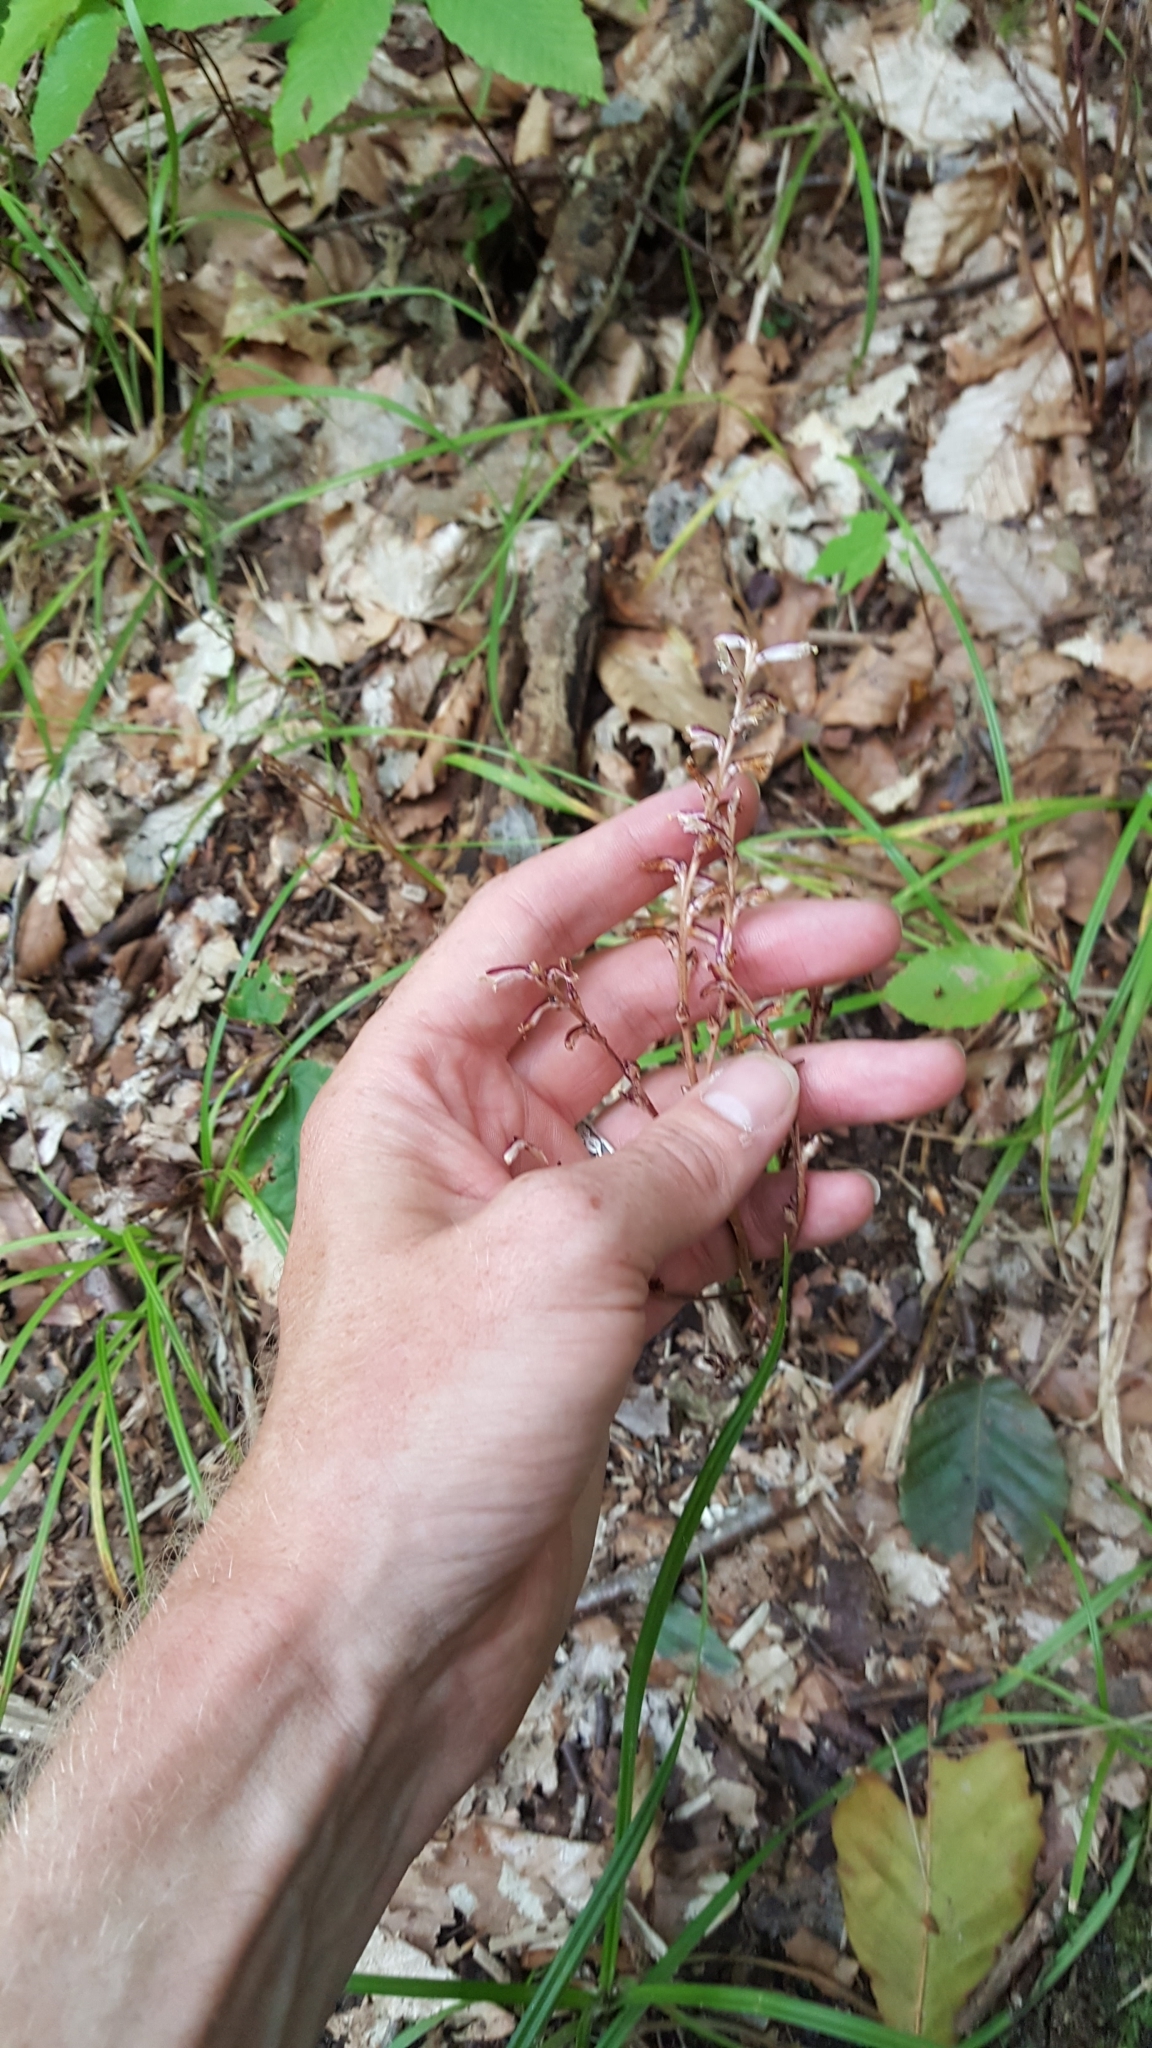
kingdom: Plantae
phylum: Tracheophyta
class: Magnoliopsida
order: Lamiales
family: Orobanchaceae
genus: Epifagus
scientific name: Epifagus virginiana
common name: Beechdrops
